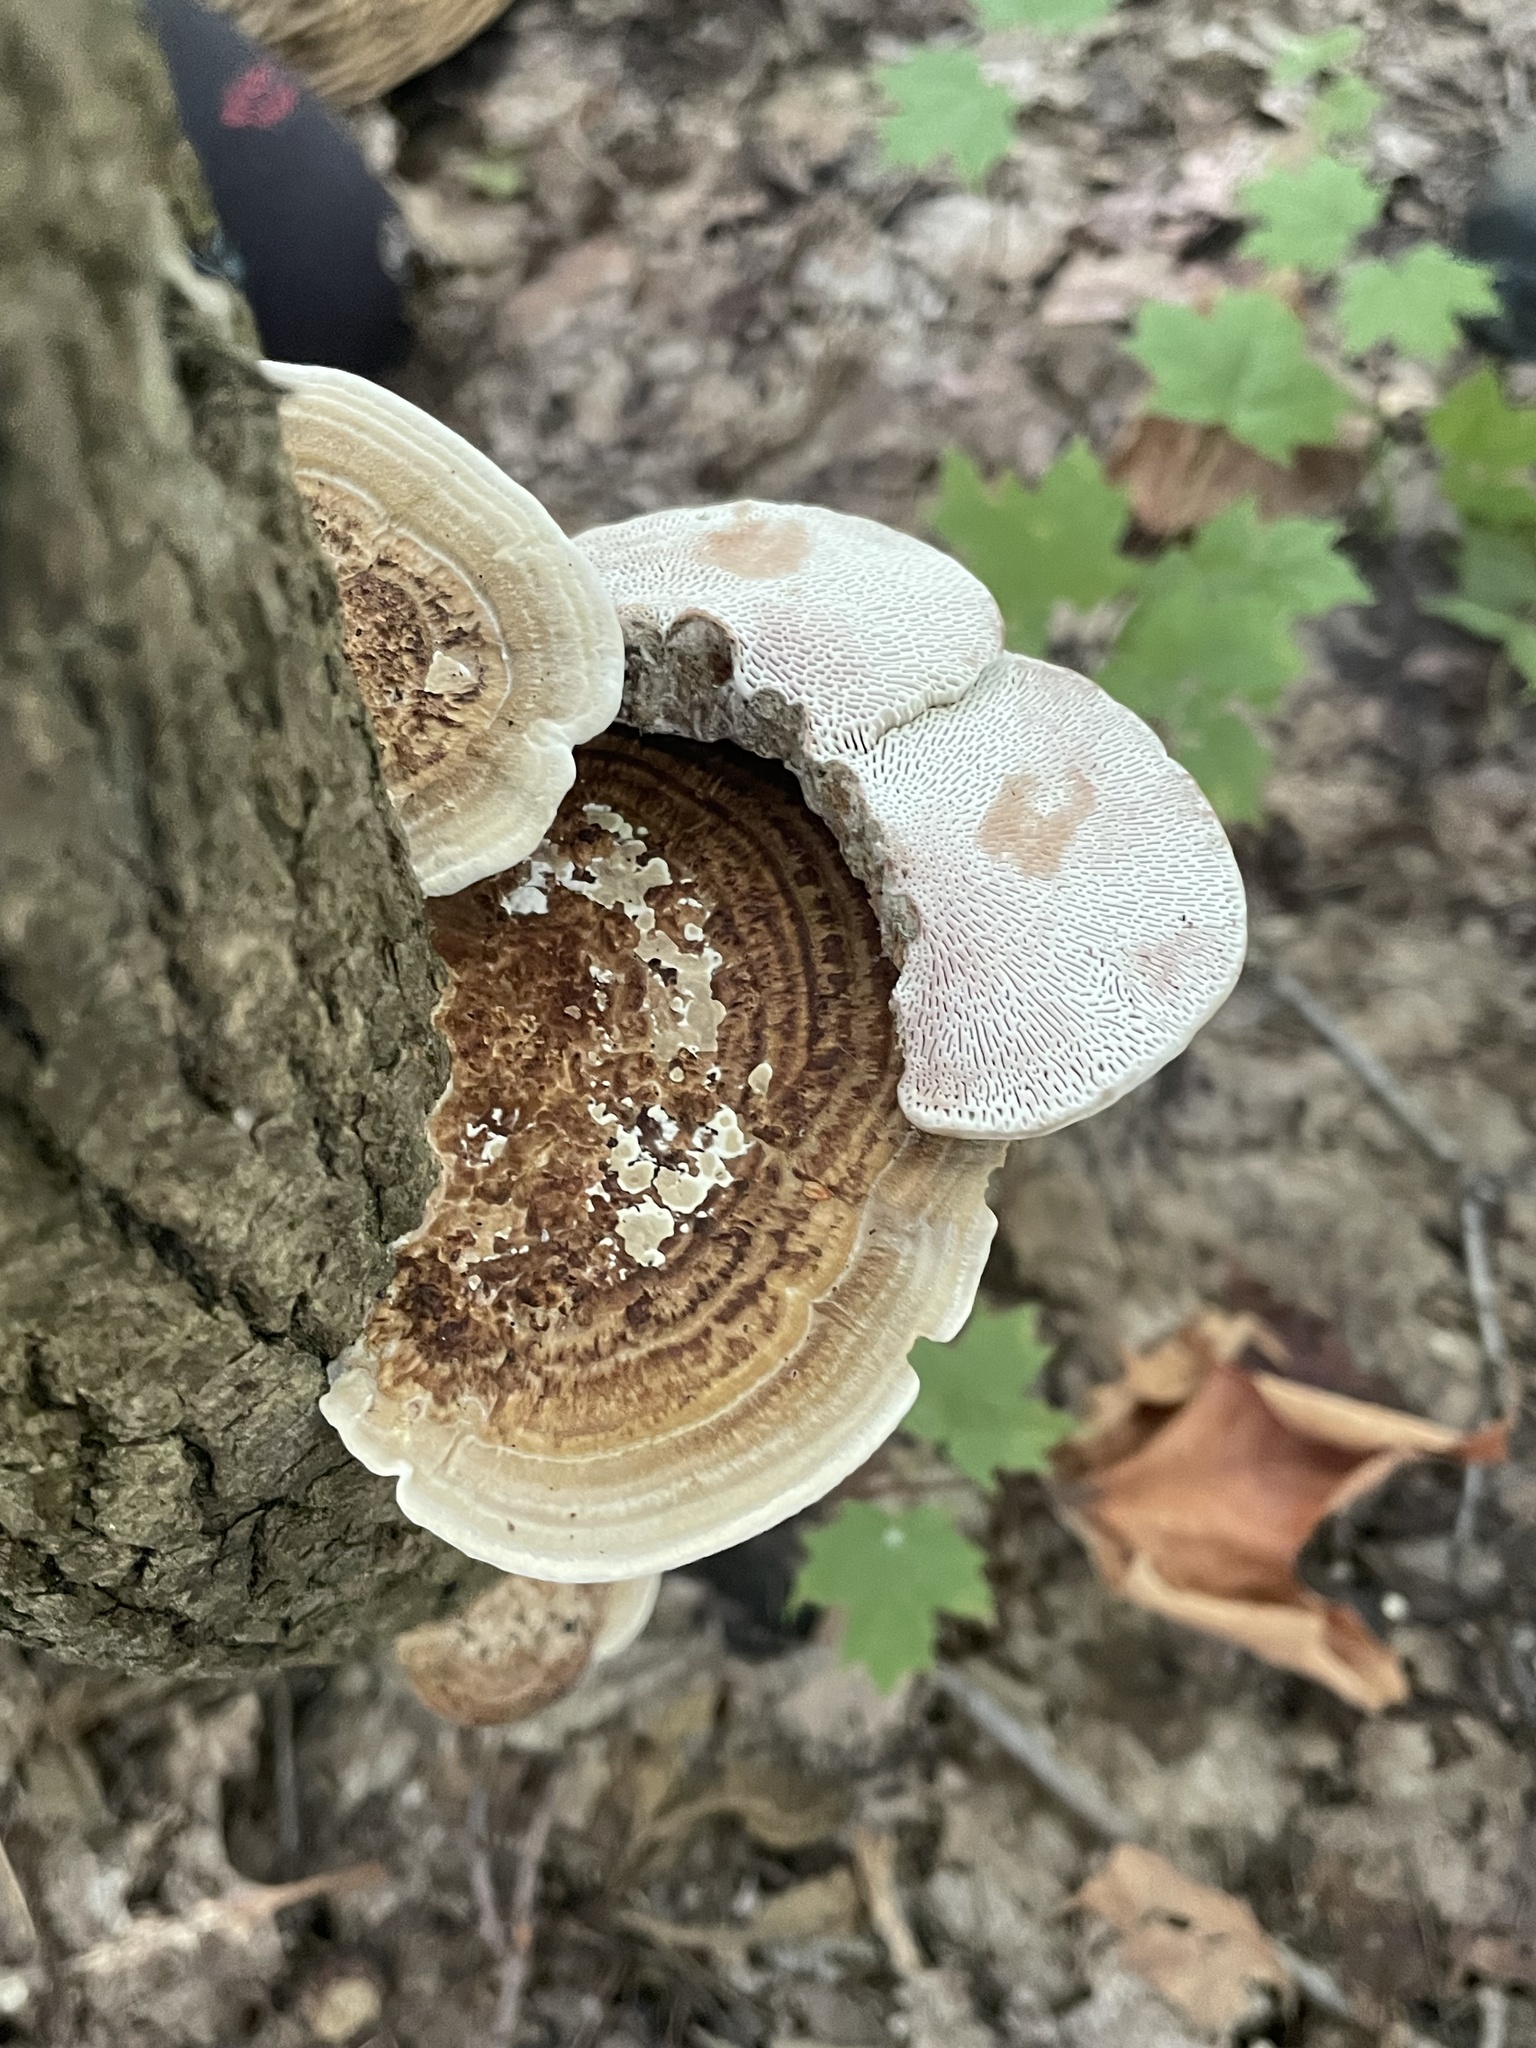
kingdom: Fungi
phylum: Basidiomycota
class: Agaricomycetes
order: Polyporales
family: Polyporaceae
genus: Daedaleopsis
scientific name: Daedaleopsis confragosa
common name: Blushing bracket
